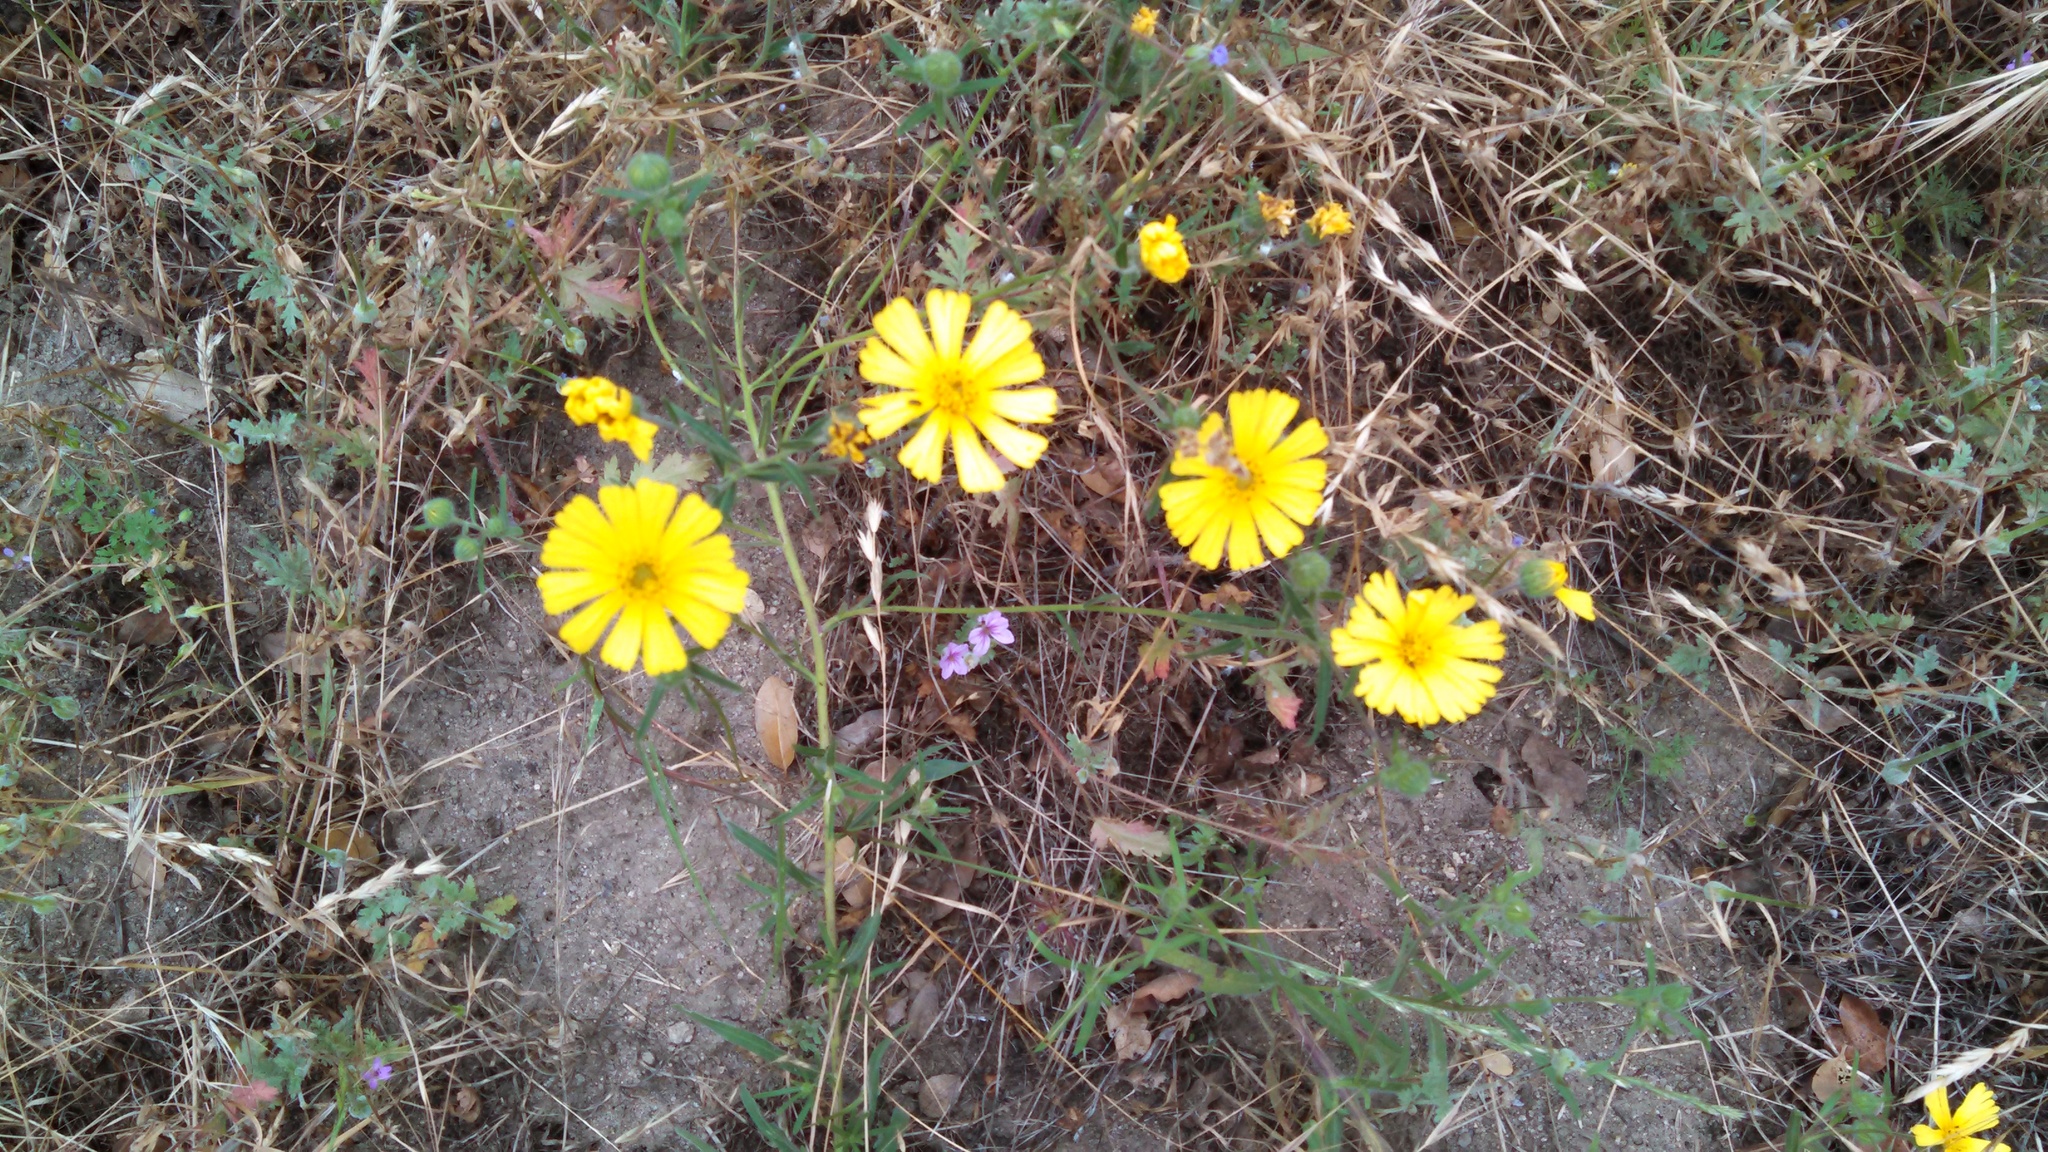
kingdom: Plantae
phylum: Tracheophyta
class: Magnoliopsida
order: Asterales
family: Asteraceae
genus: Madia
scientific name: Madia elegans
